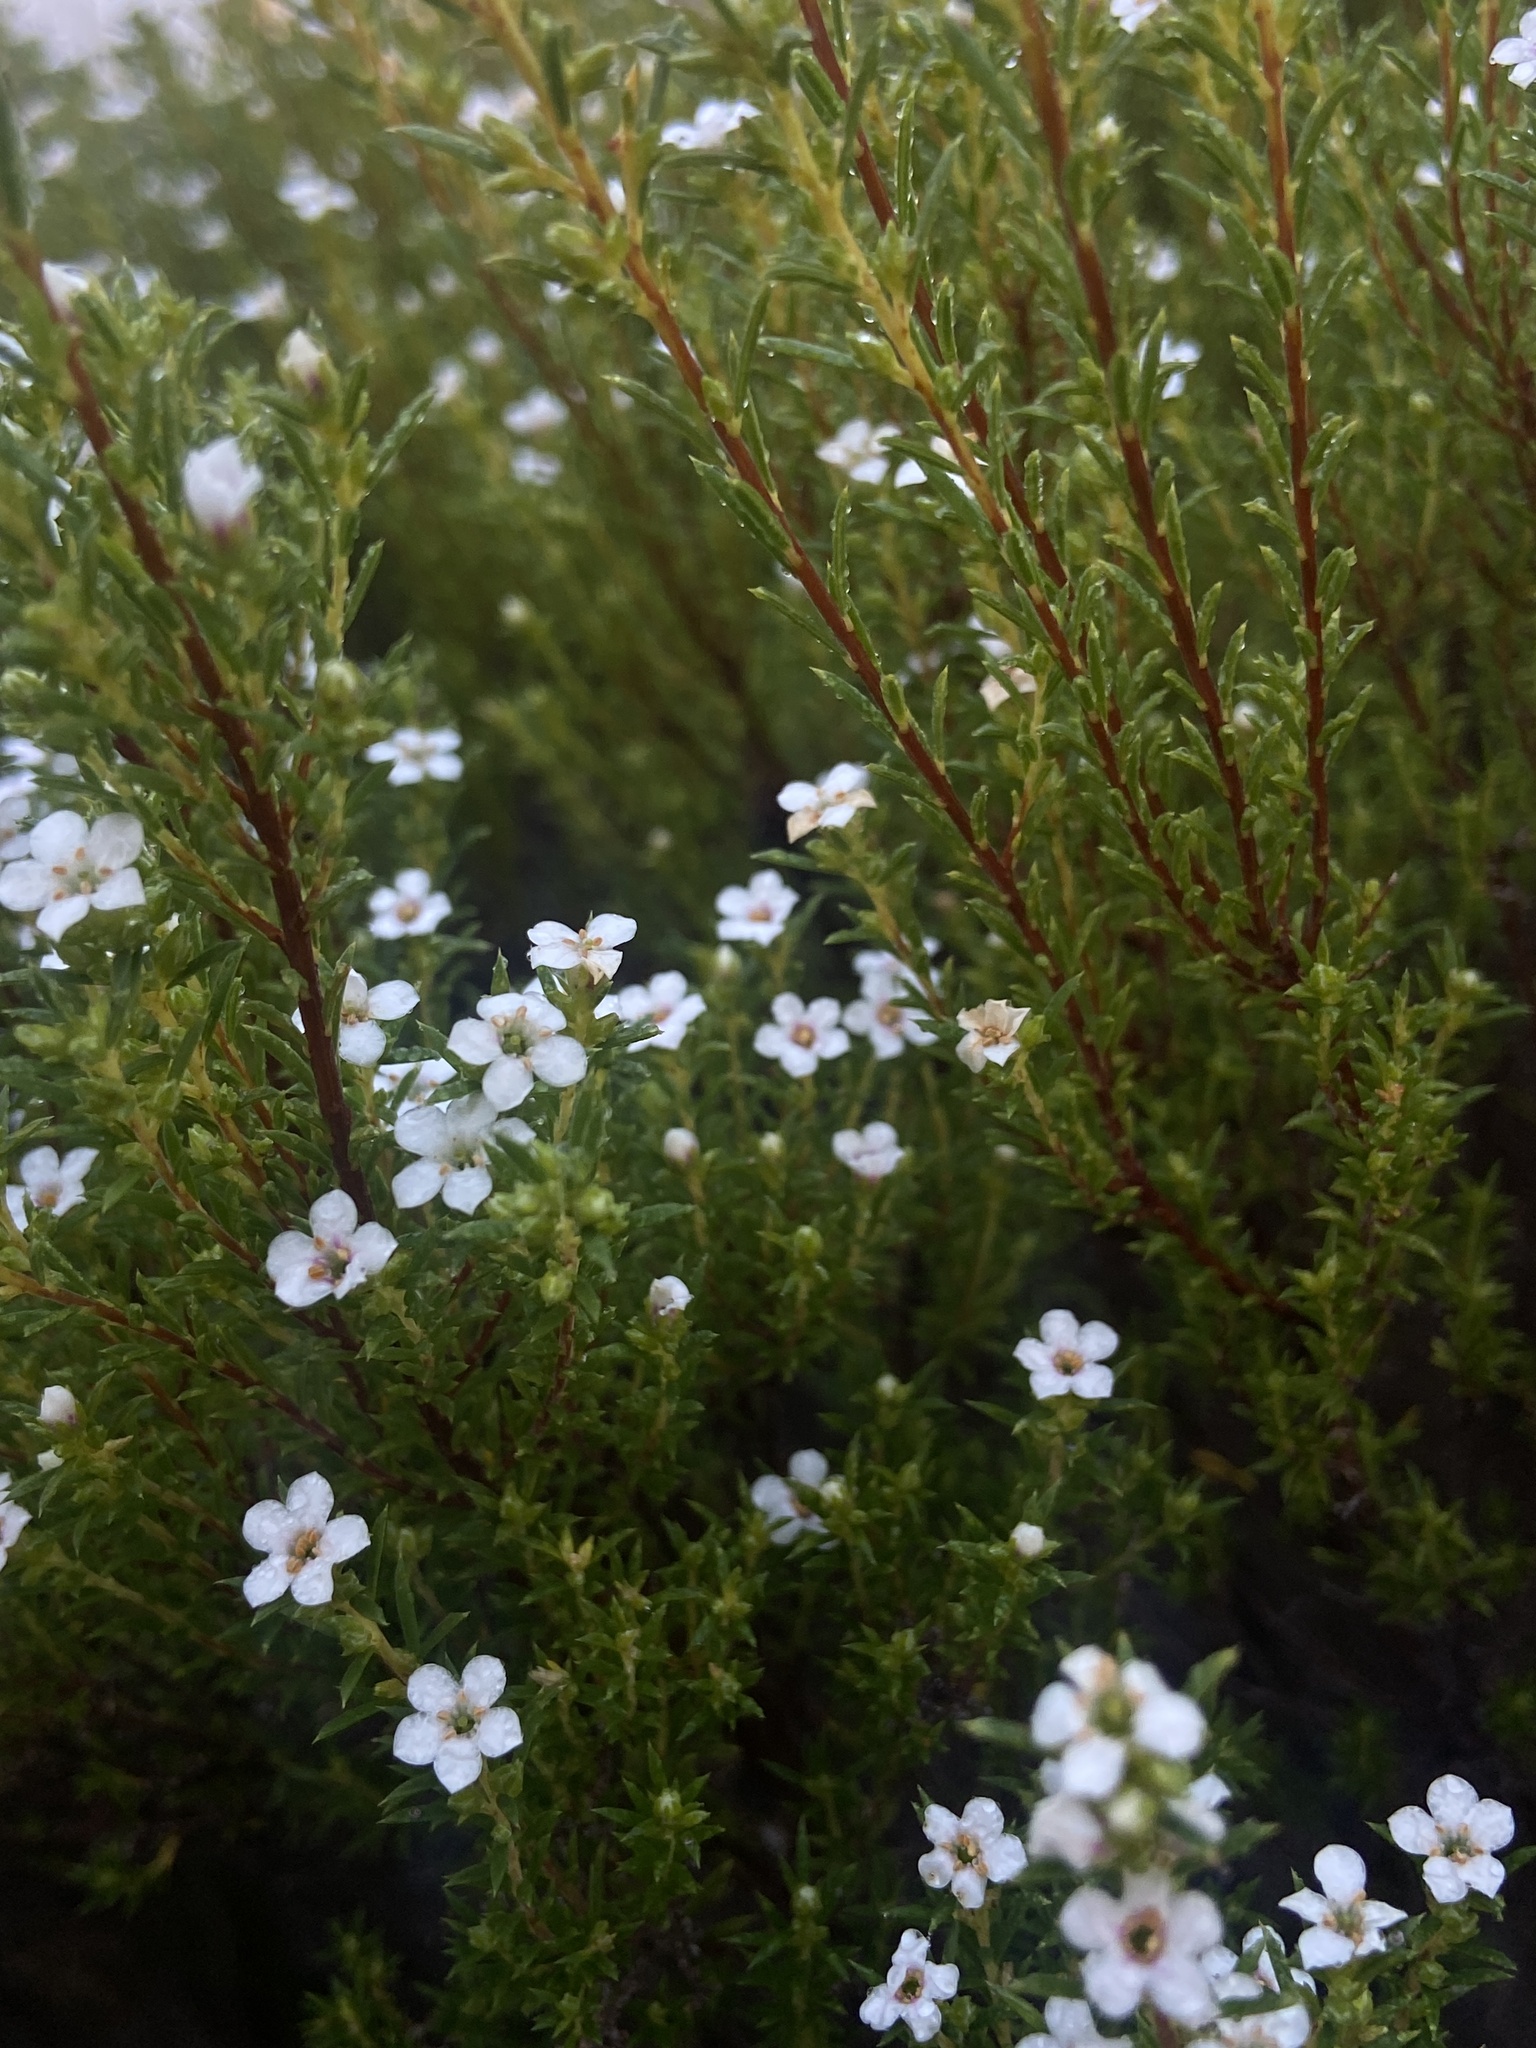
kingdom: Plantae
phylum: Tracheophyta
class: Magnoliopsida
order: Sapindales
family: Rutaceae
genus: Coleonema
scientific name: Coleonema album
